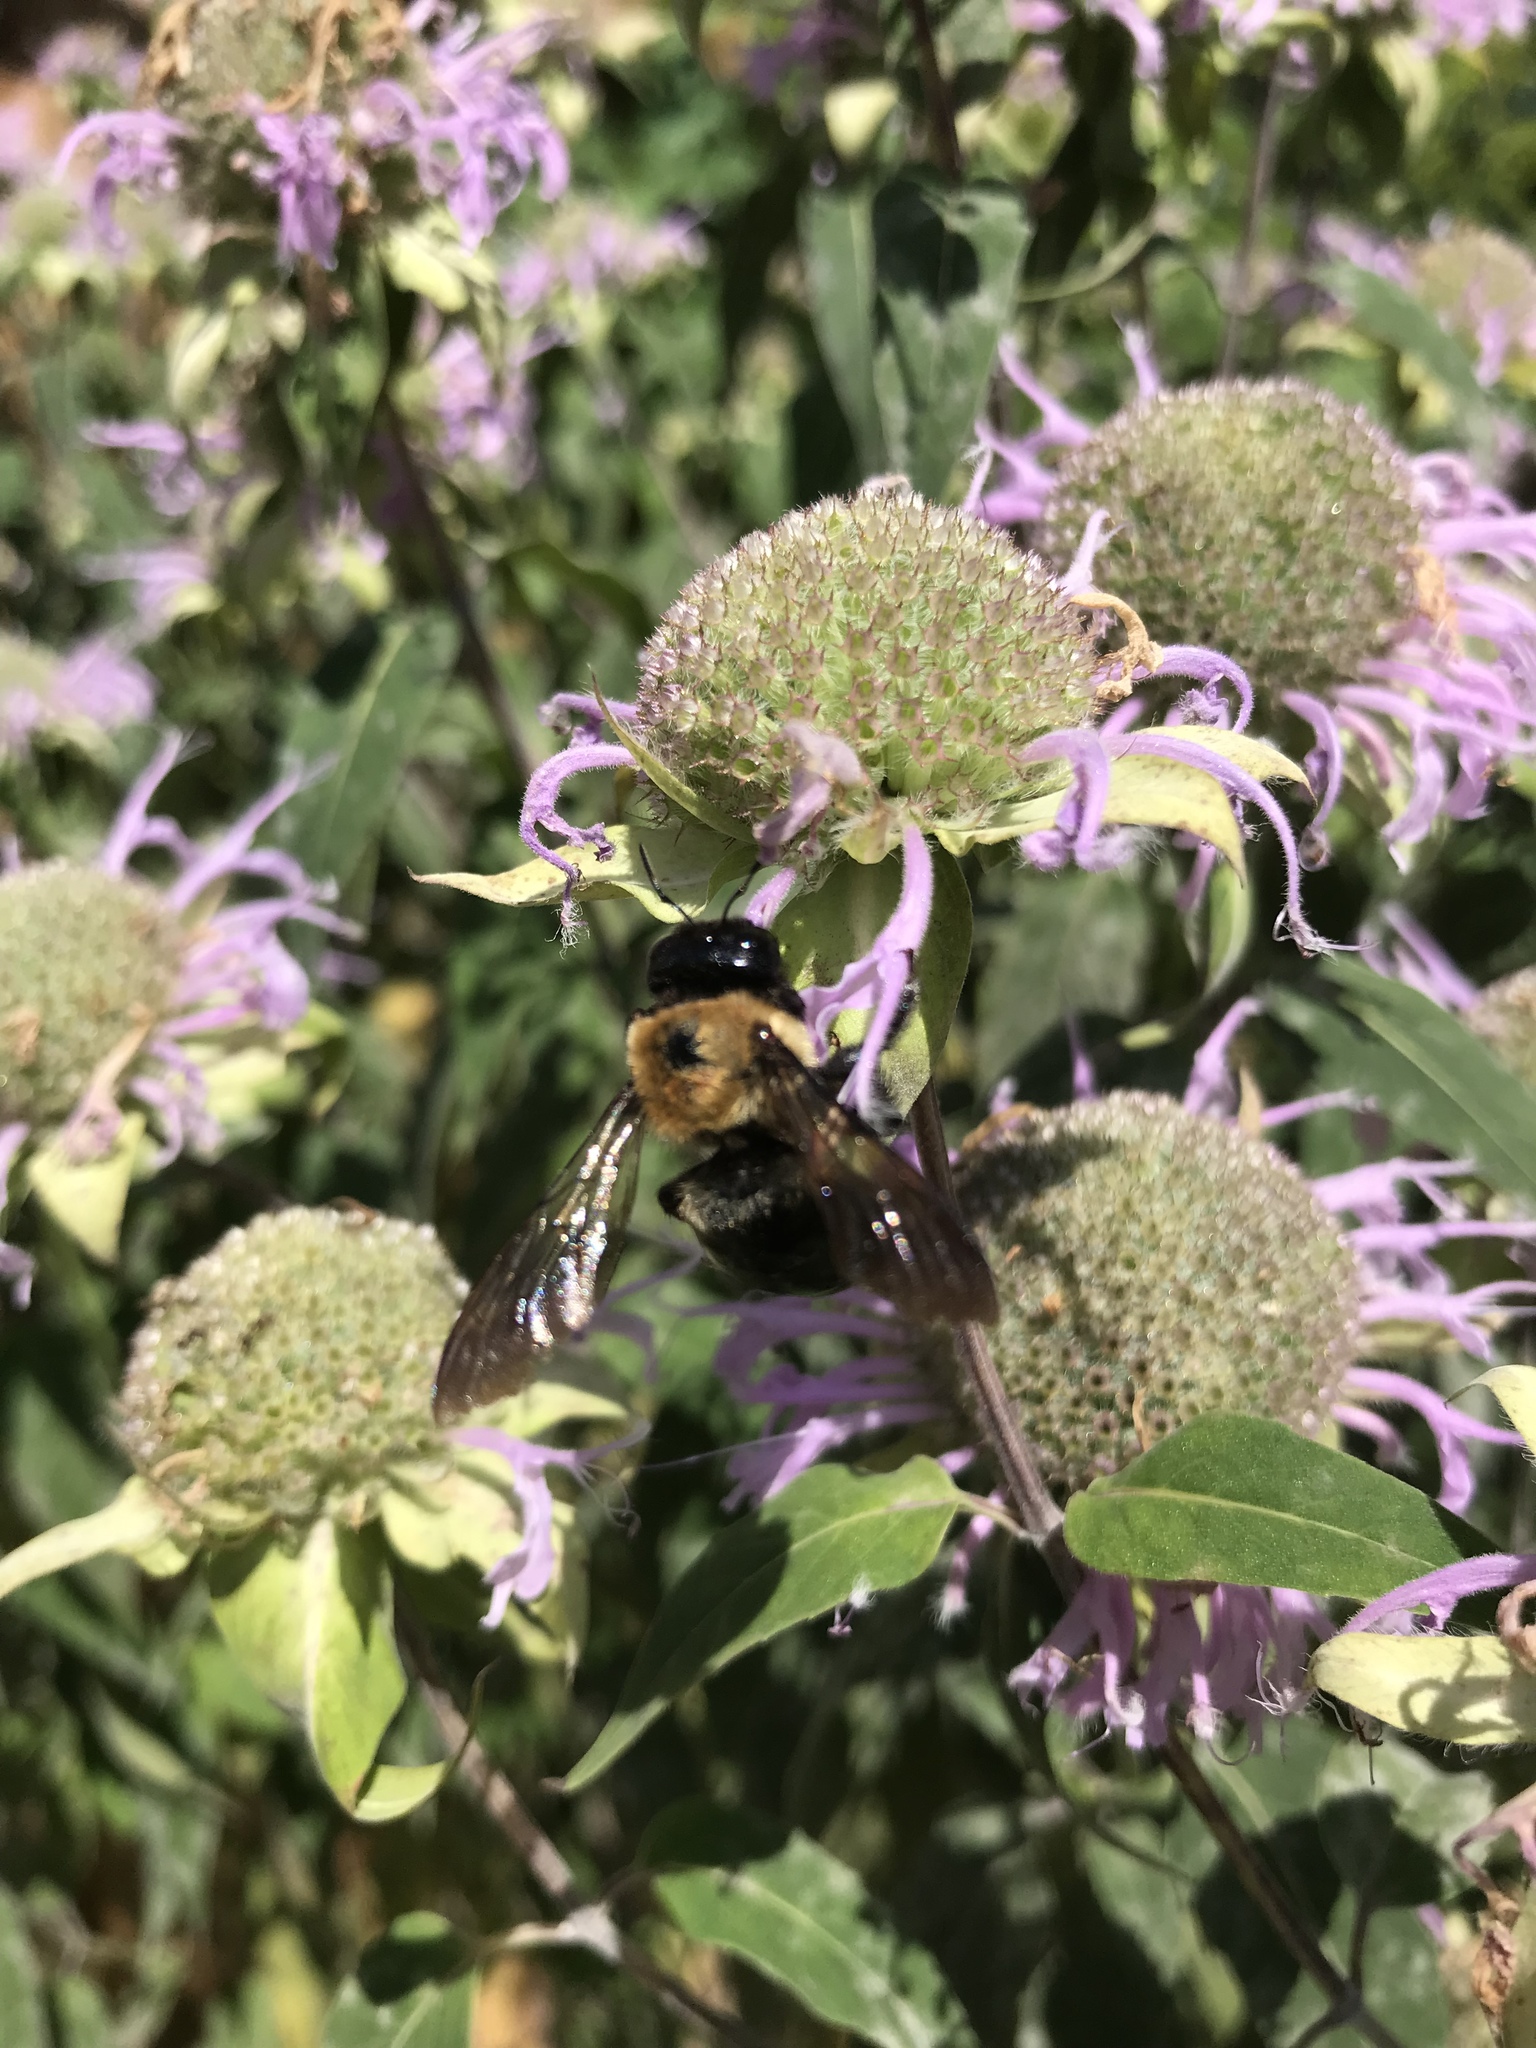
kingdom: Animalia
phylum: Arthropoda
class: Insecta
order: Hymenoptera
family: Apidae
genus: Xylocopa
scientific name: Xylocopa virginica
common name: Carpenter bee
